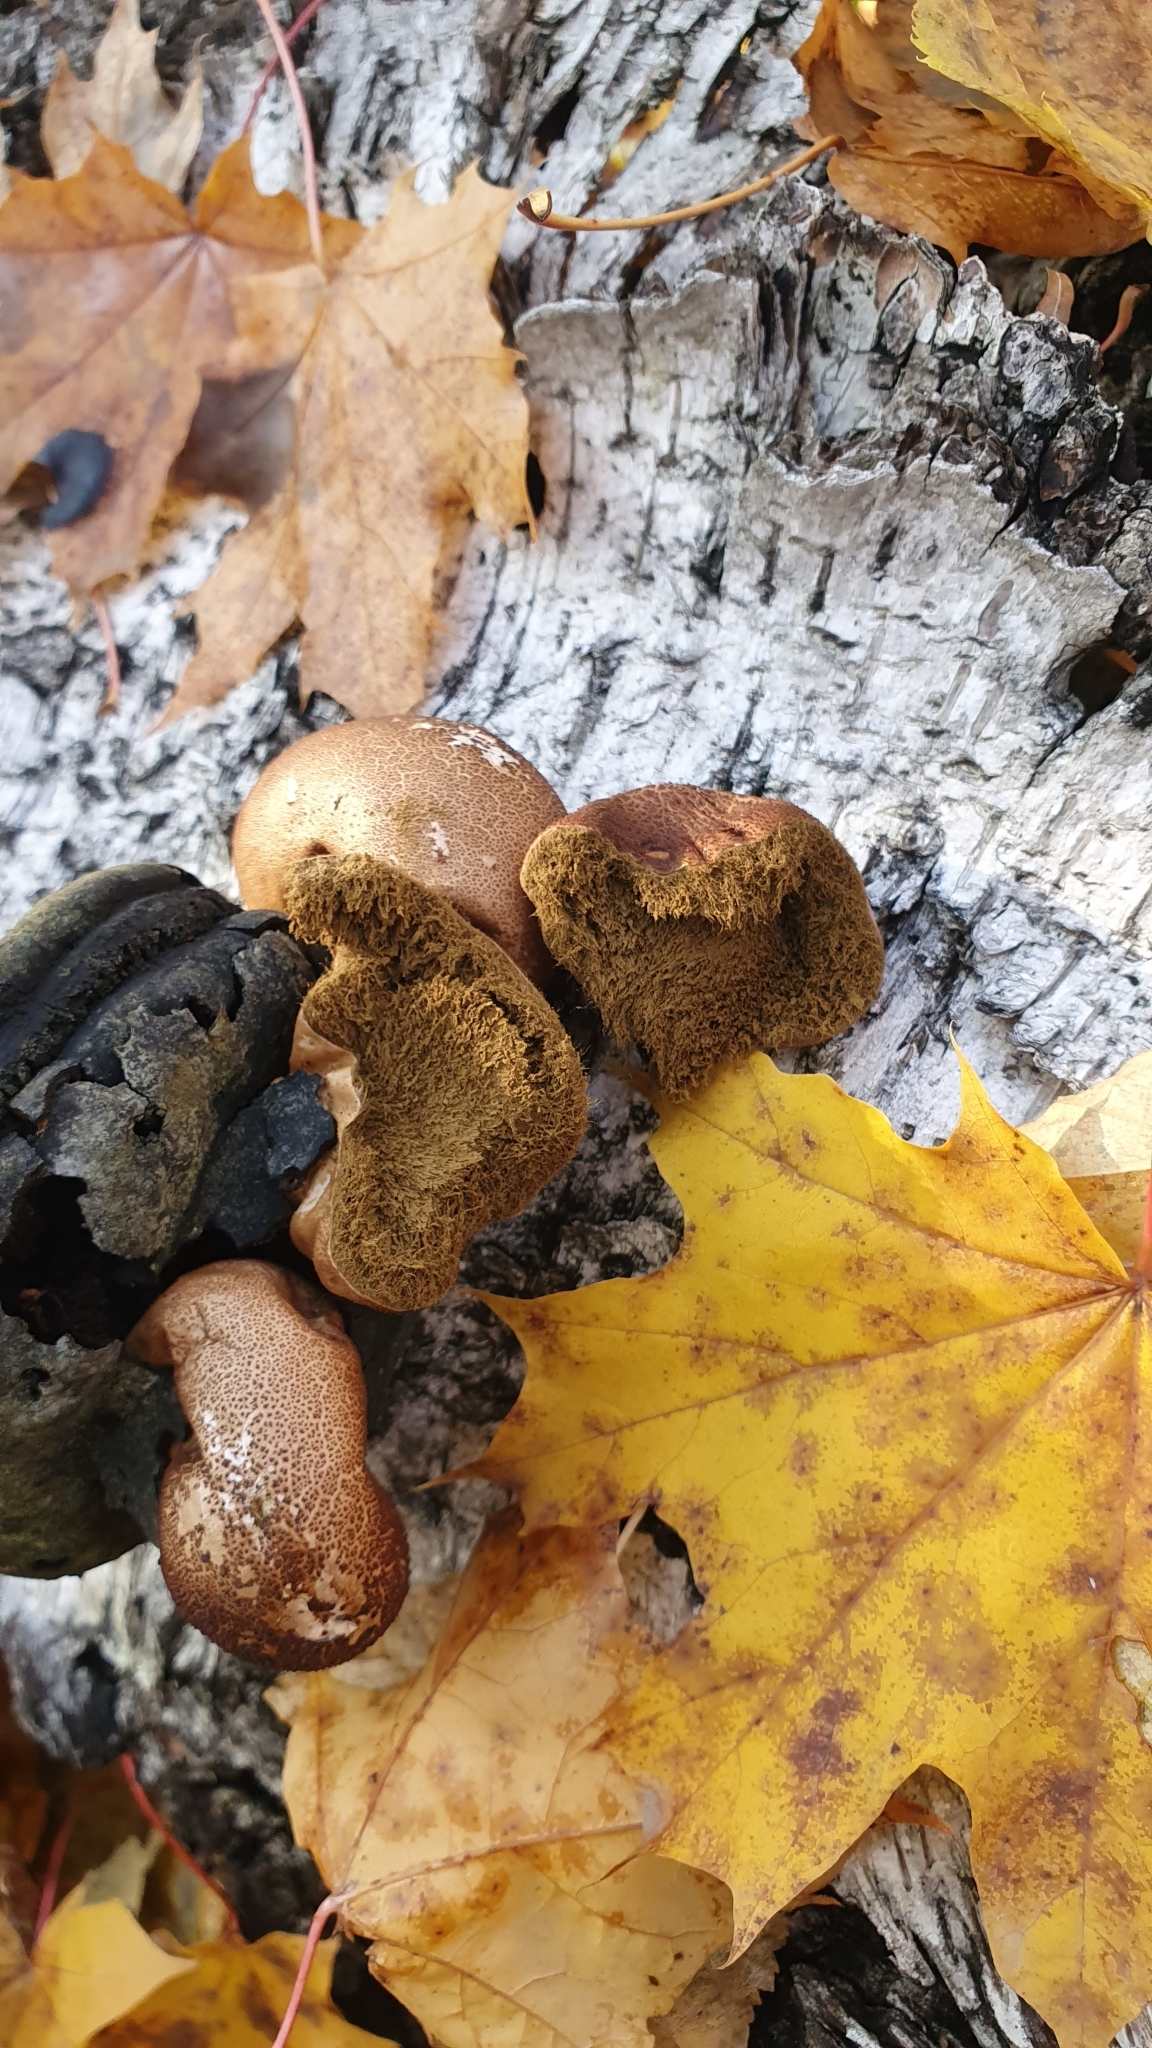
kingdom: Fungi
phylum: Basidiomycota
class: Agaricomycetes
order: Agaricales
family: Lycoperdaceae
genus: Apioperdon
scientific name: Apioperdon pyriforme
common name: Pear-shaped puffball
